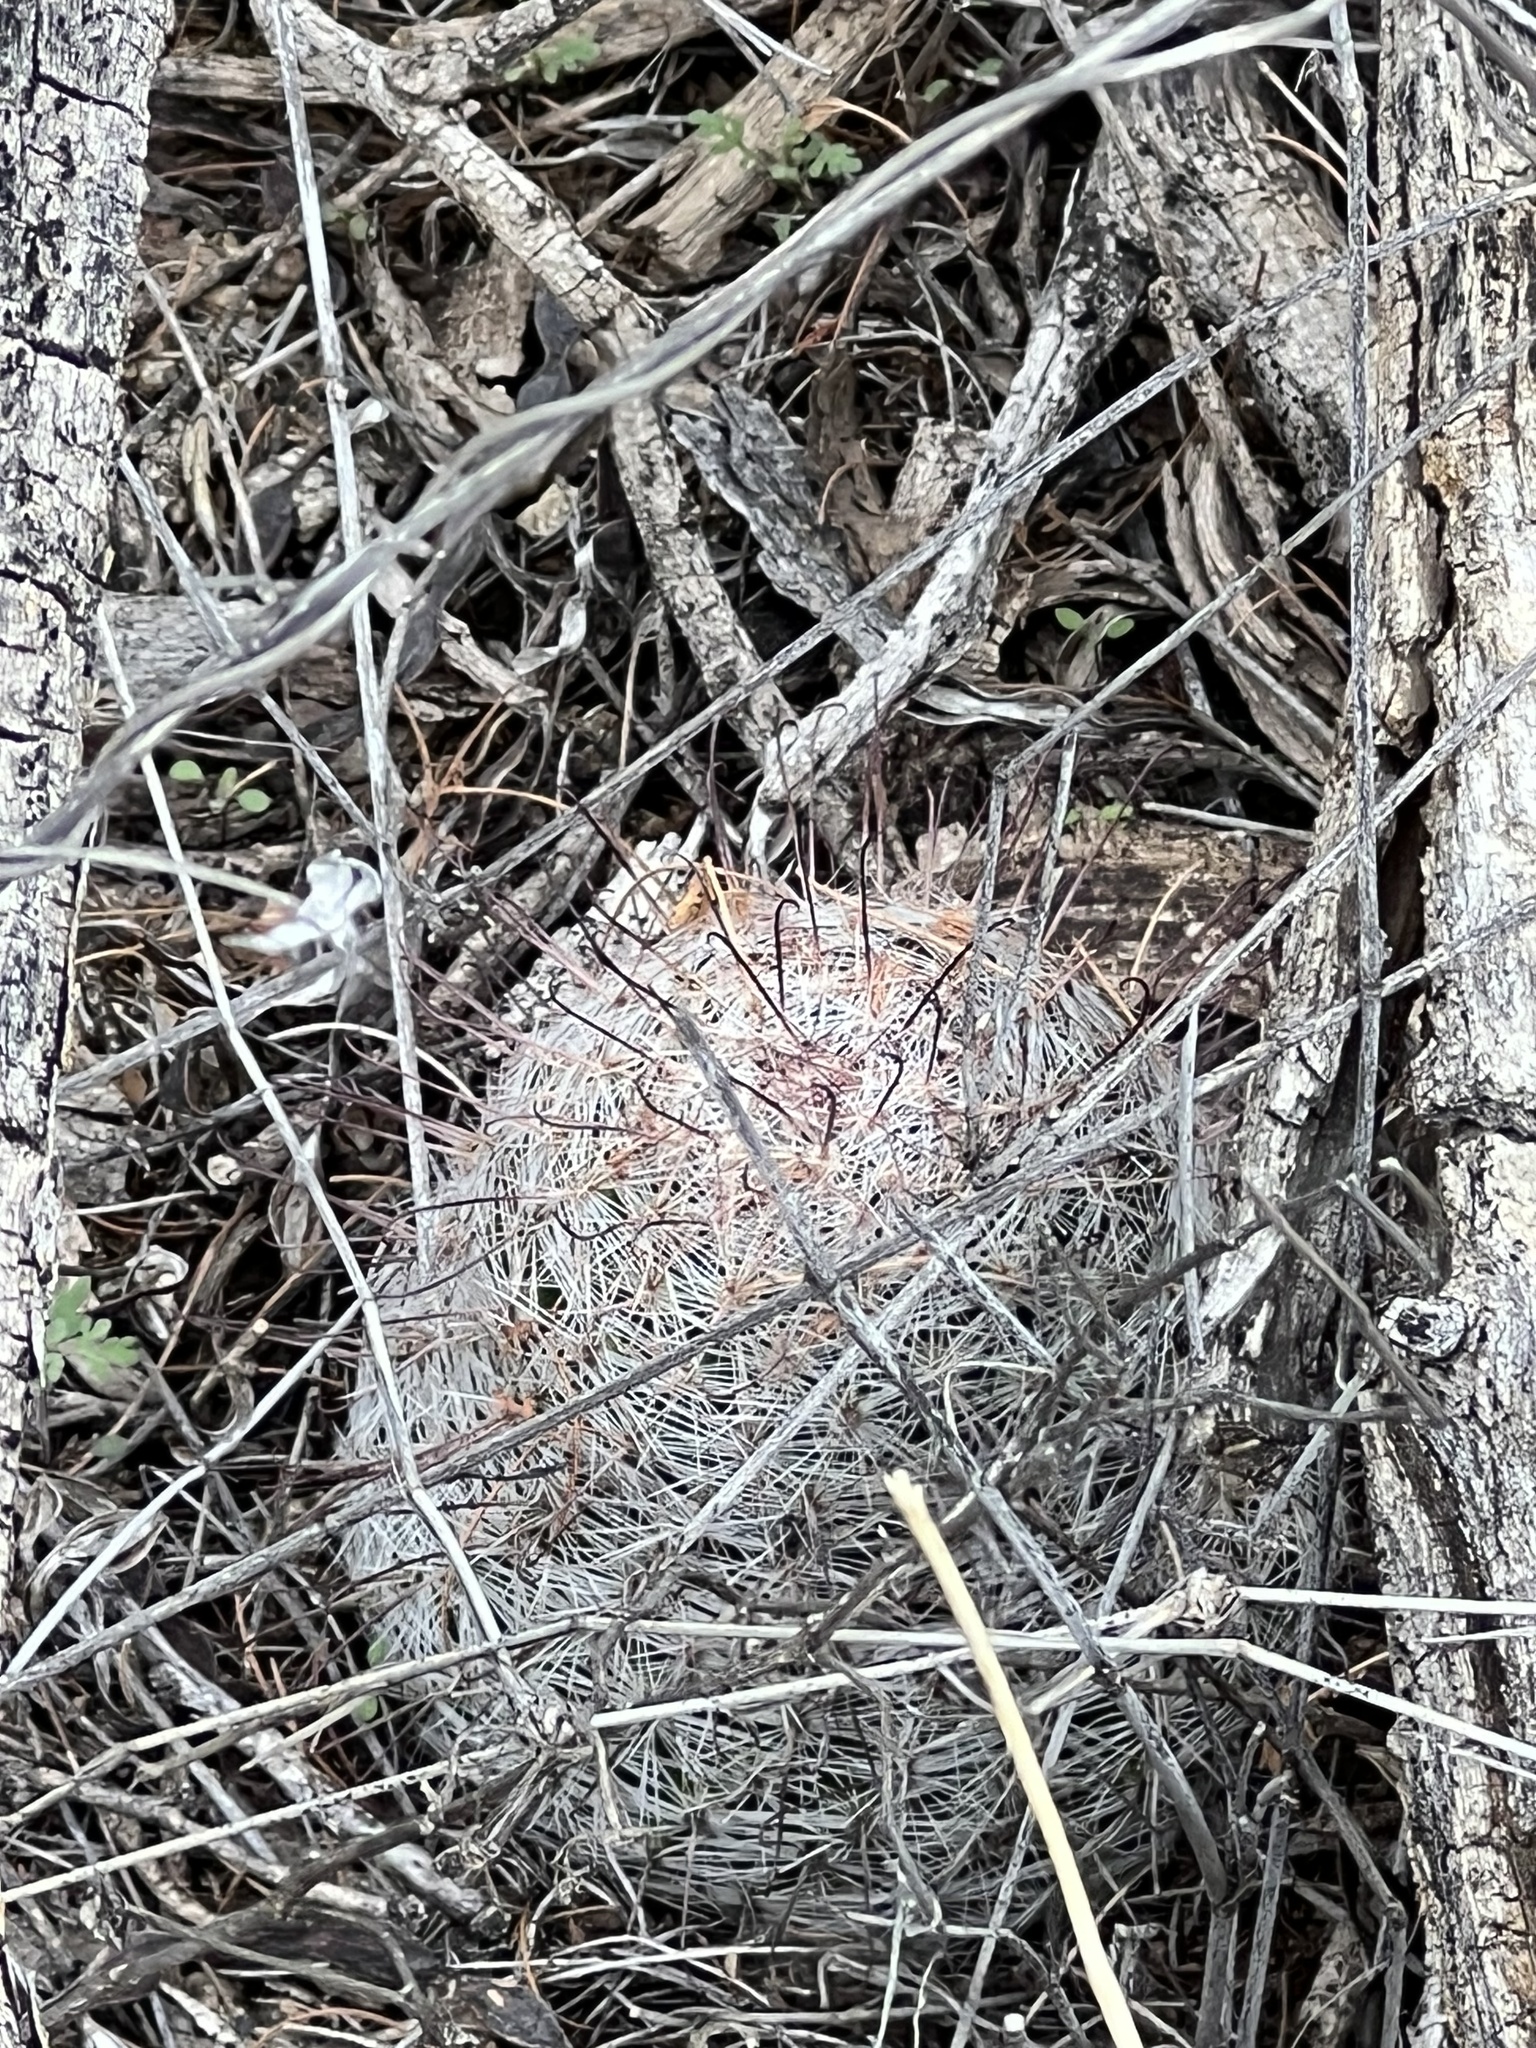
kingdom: Plantae
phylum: Tracheophyta
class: Magnoliopsida
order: Caryophyllales
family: Cactaceae
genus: Cochemiea
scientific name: Cochemiea grahamii
